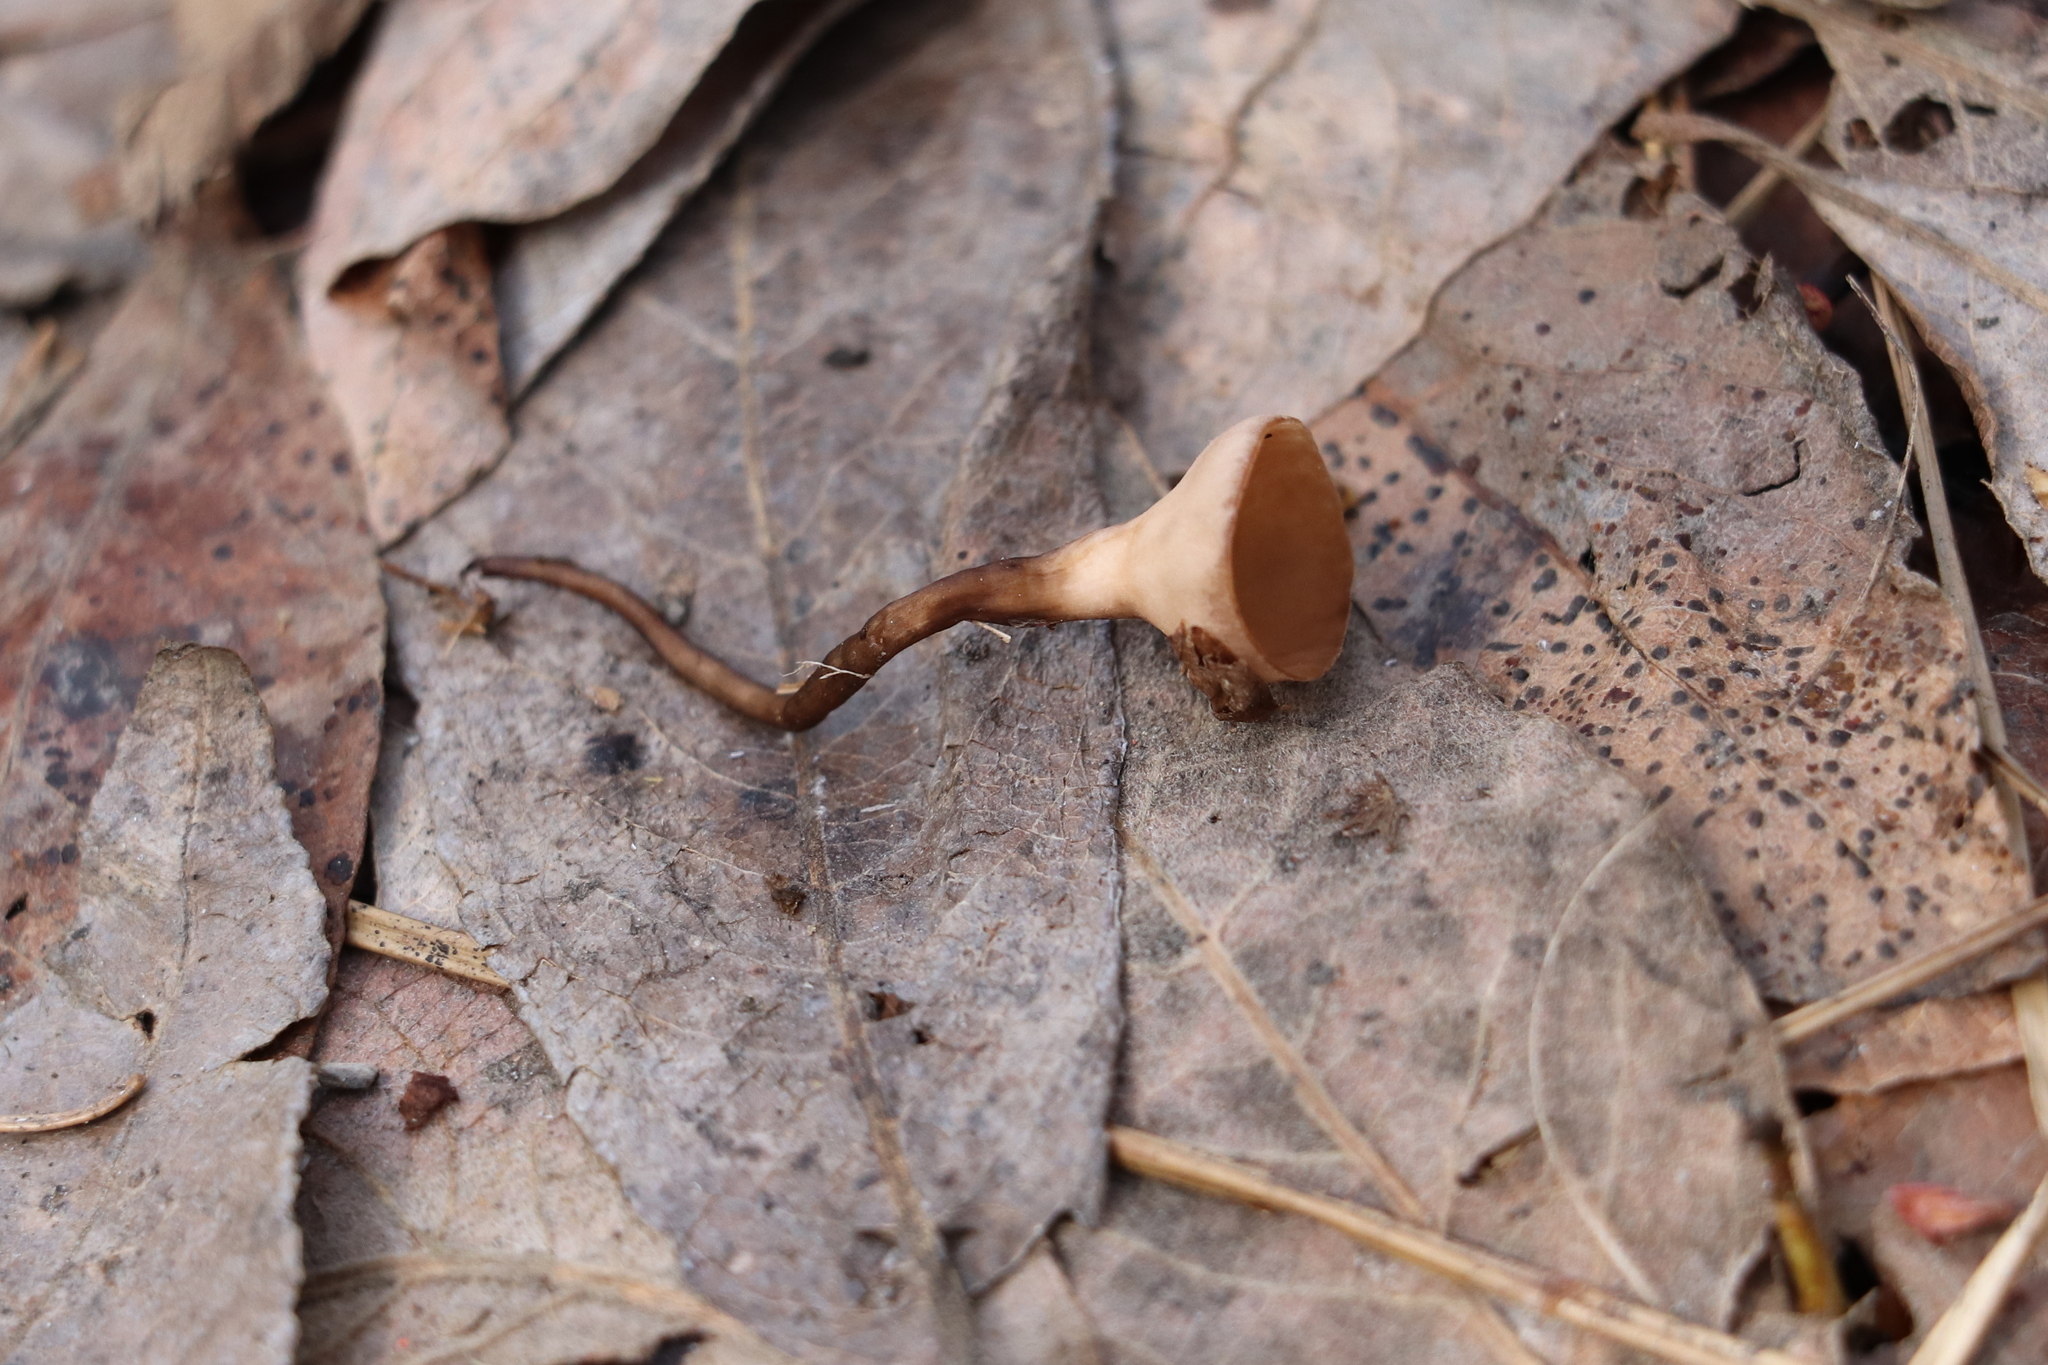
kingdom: Fungi
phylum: Ascomycota
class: Leotiomycetes
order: Helotiales
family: Sclerotiniaceae
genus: Ciboria
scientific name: Ciboria caucus
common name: Alder goblet
